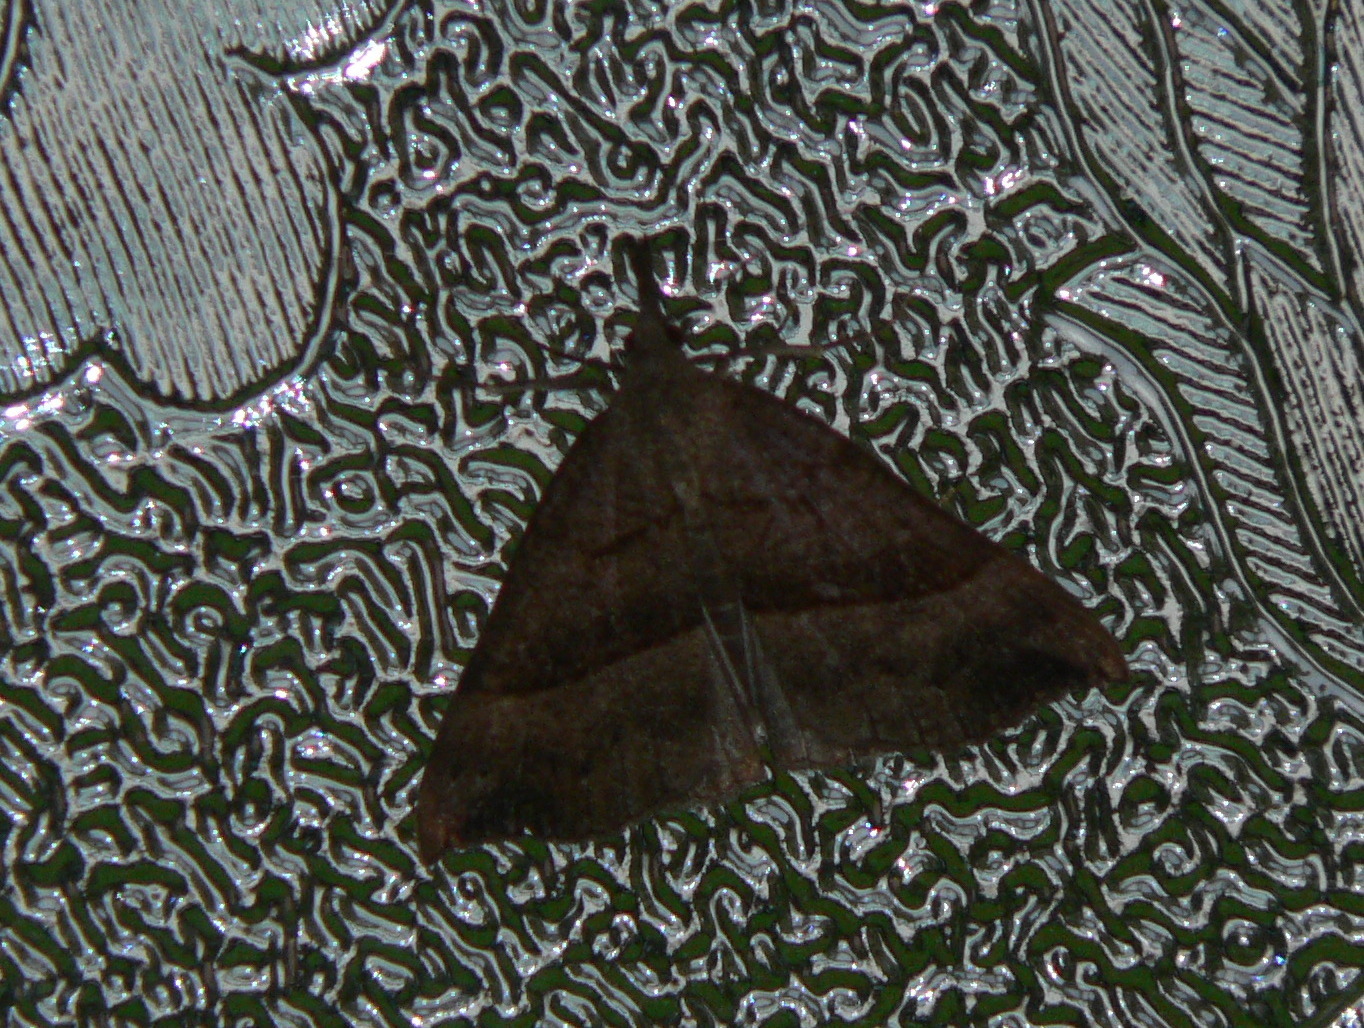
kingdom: Animalia
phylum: Arthropoda
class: Insecta
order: Lepidoptera
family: Erebidae
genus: Hypena
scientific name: Hypena proboscidalis
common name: Snout
